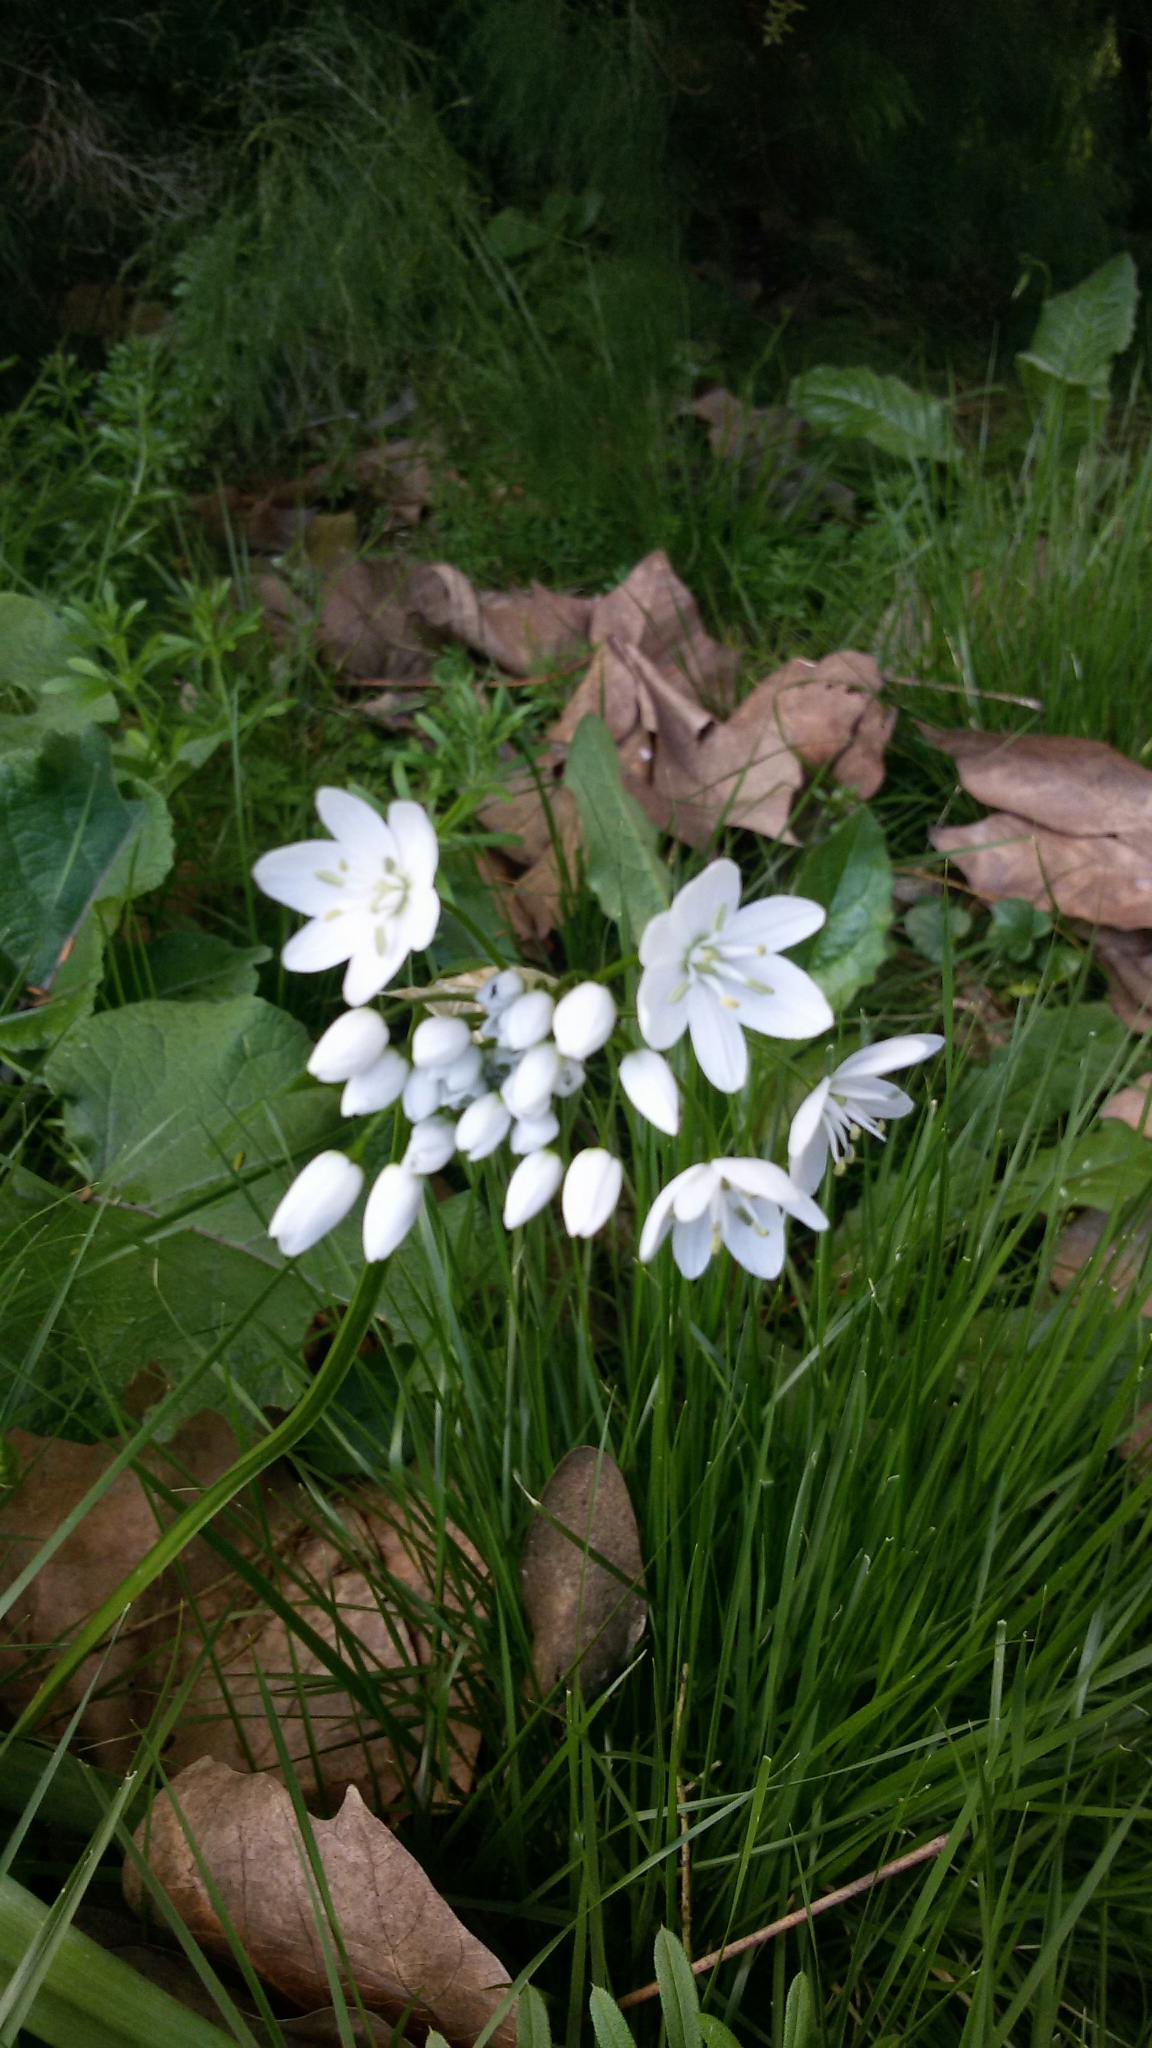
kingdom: Plantae
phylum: Tracheophyta
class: Liliopsida
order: Asparagales
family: Amaryllidaceae
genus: Allium
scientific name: Allium neapolitanum
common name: Neapolitan garlic
